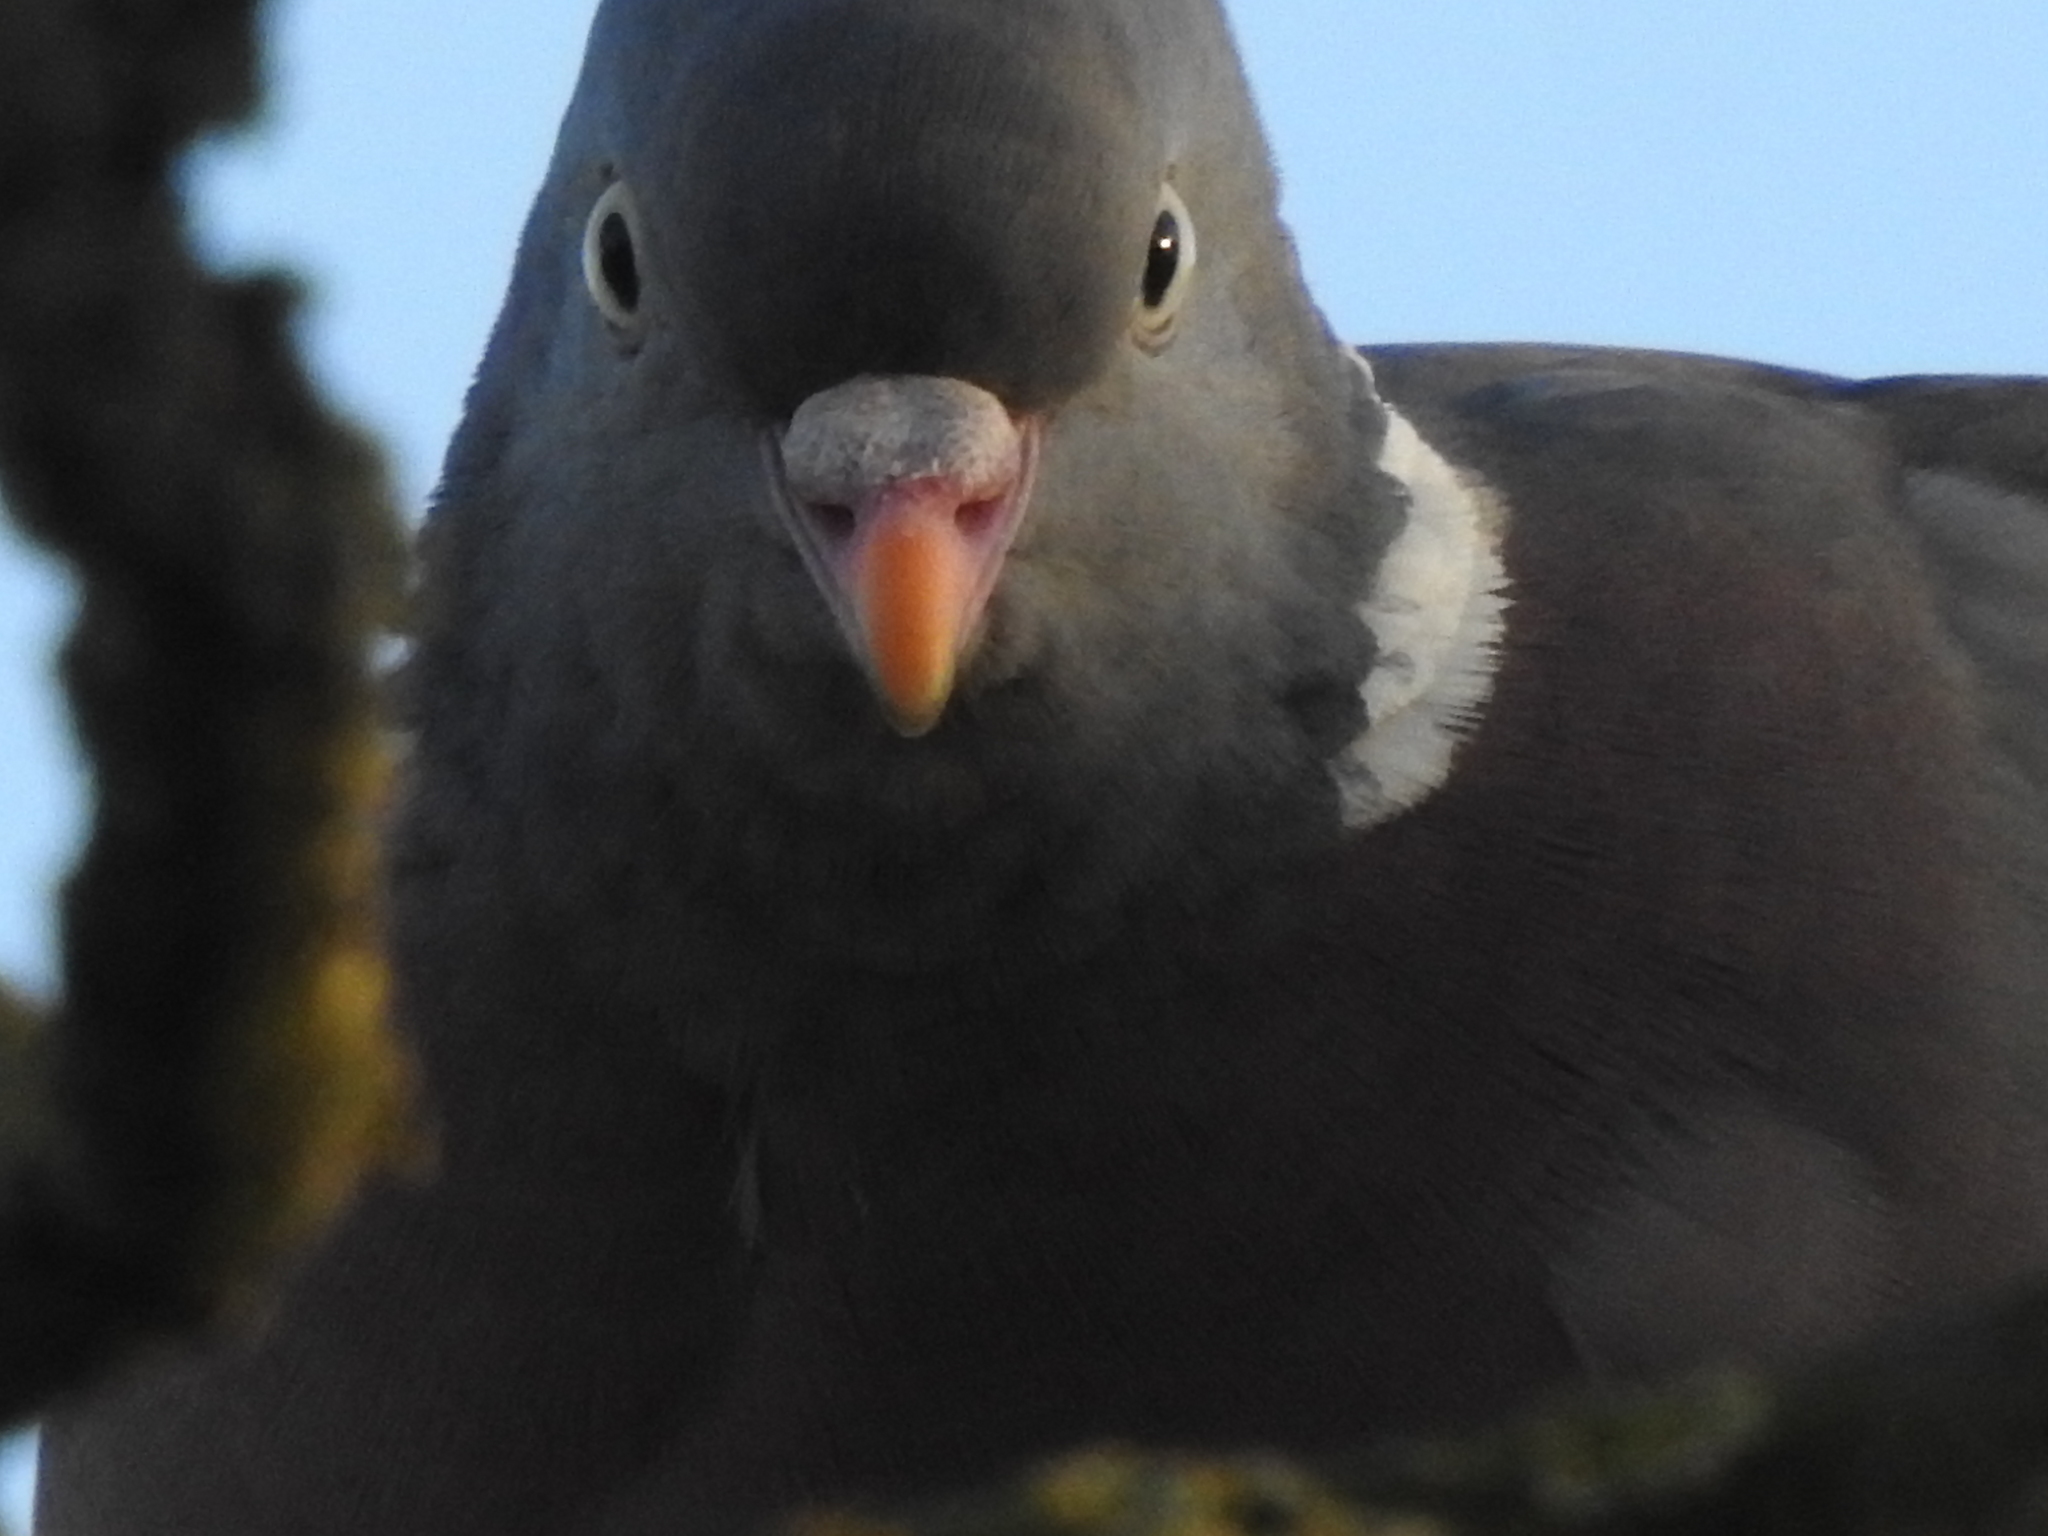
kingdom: Animalia
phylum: Chordata
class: Aves
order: Columbiformes
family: Columbidae
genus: Columba
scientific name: Columba palumbus
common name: Common wood pigeon
